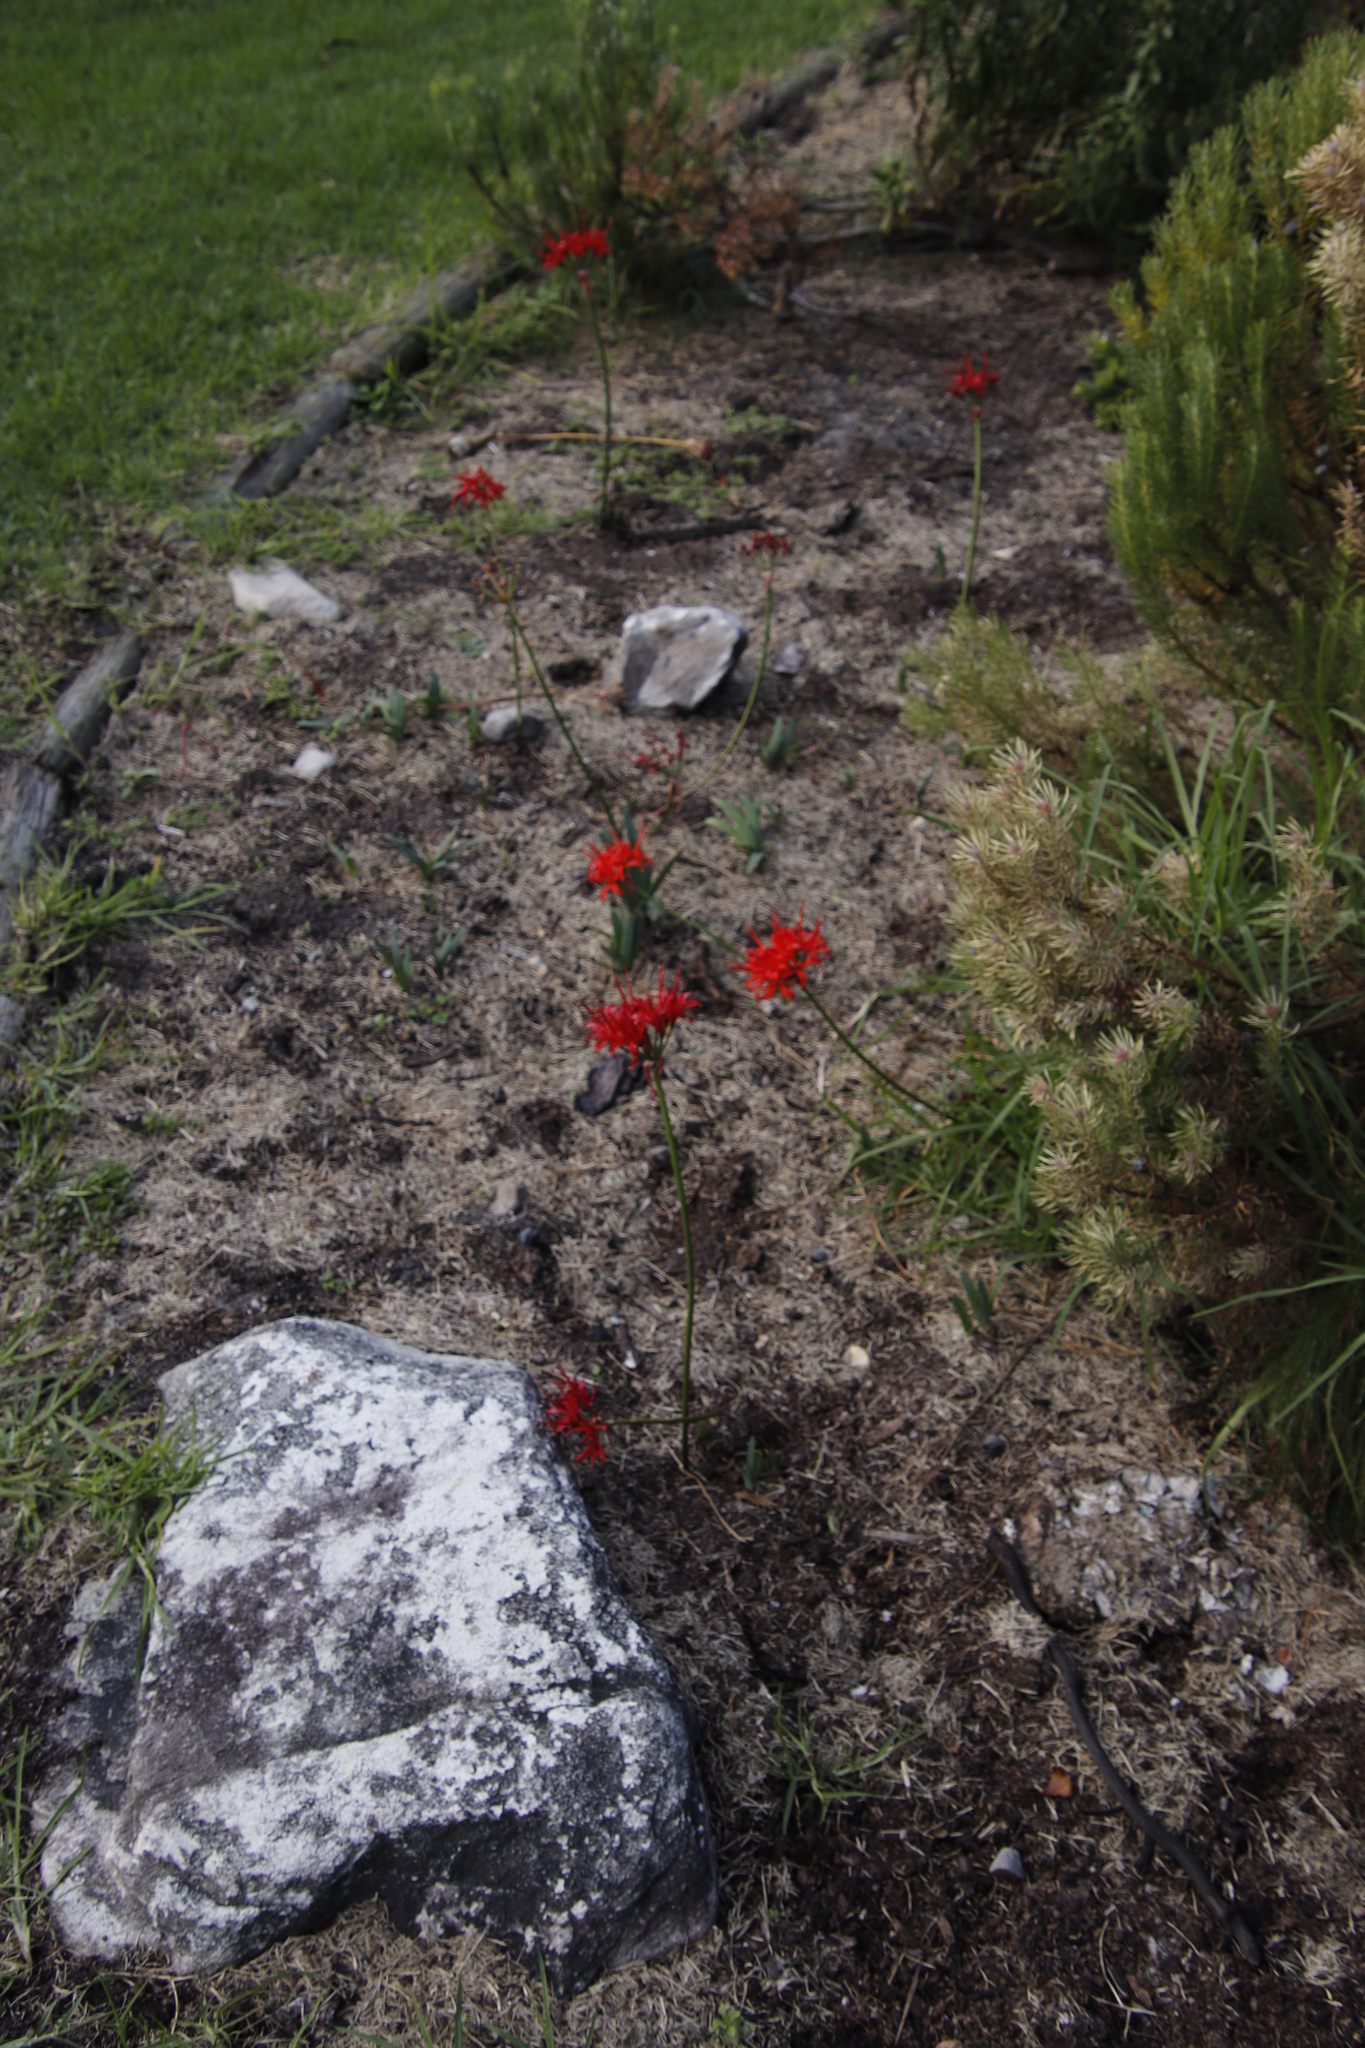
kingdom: Plantae
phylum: Tracheophyta
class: Liliopsida
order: Asparagales
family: Amaryllidaceae
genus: Nerine
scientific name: Nerine sarniensis
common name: Guernsey-lily
